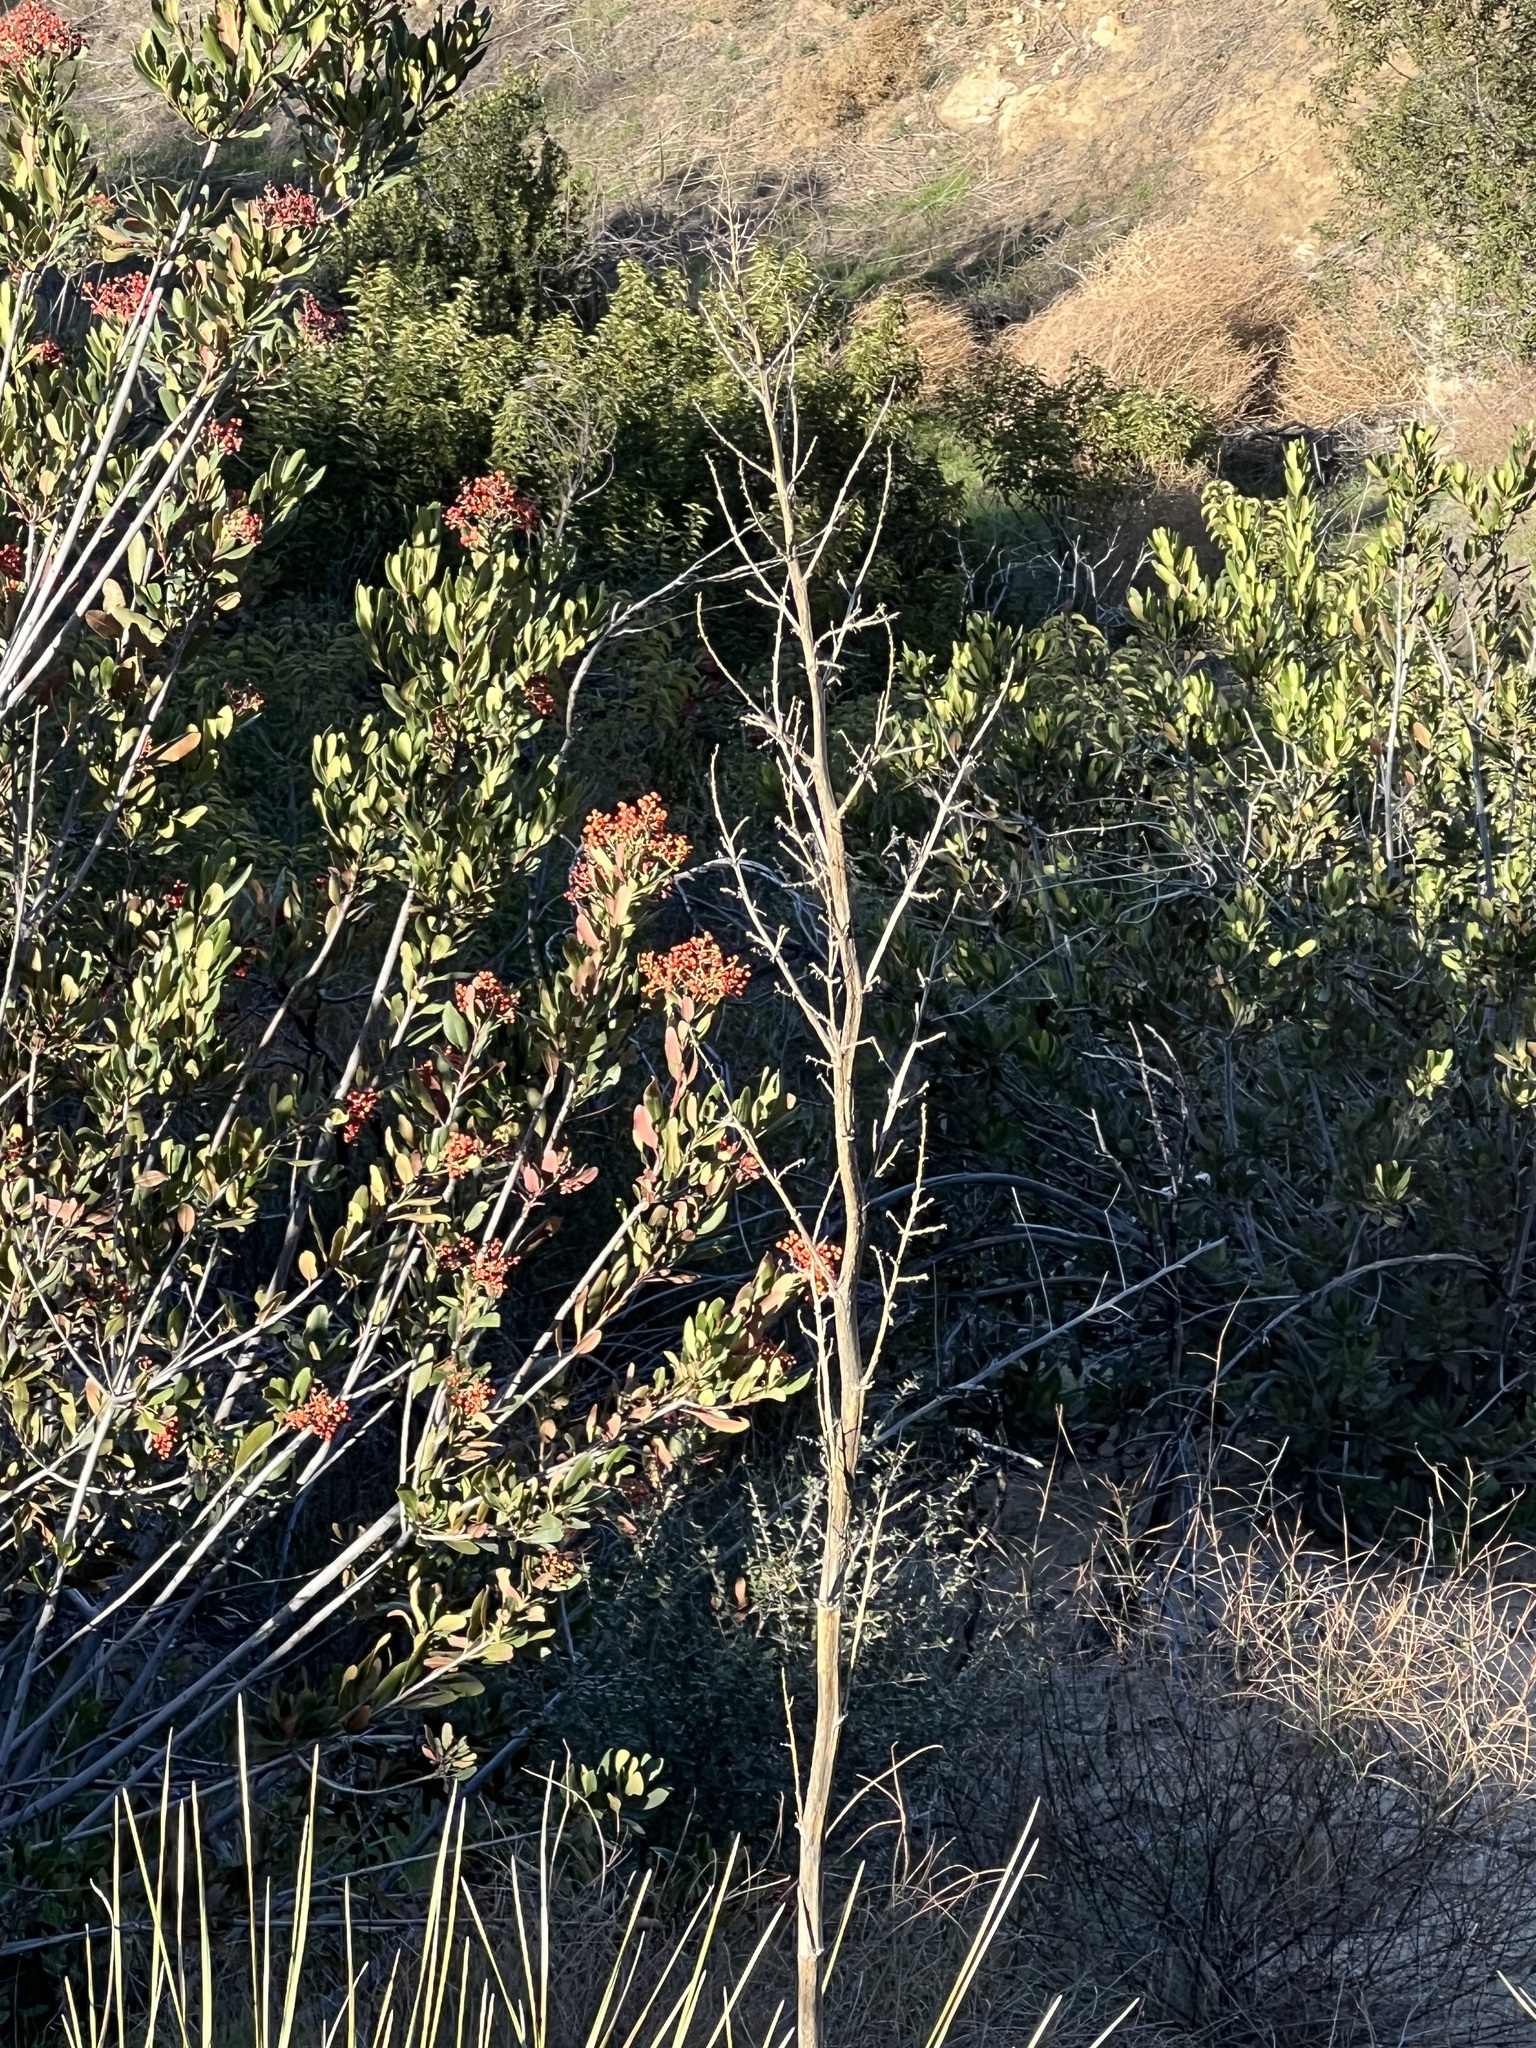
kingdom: Plantae
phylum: Tracheophyta
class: Liliopsida
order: Asparagales
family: Asparagaceae
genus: Nolina
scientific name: Nolina cismontana
